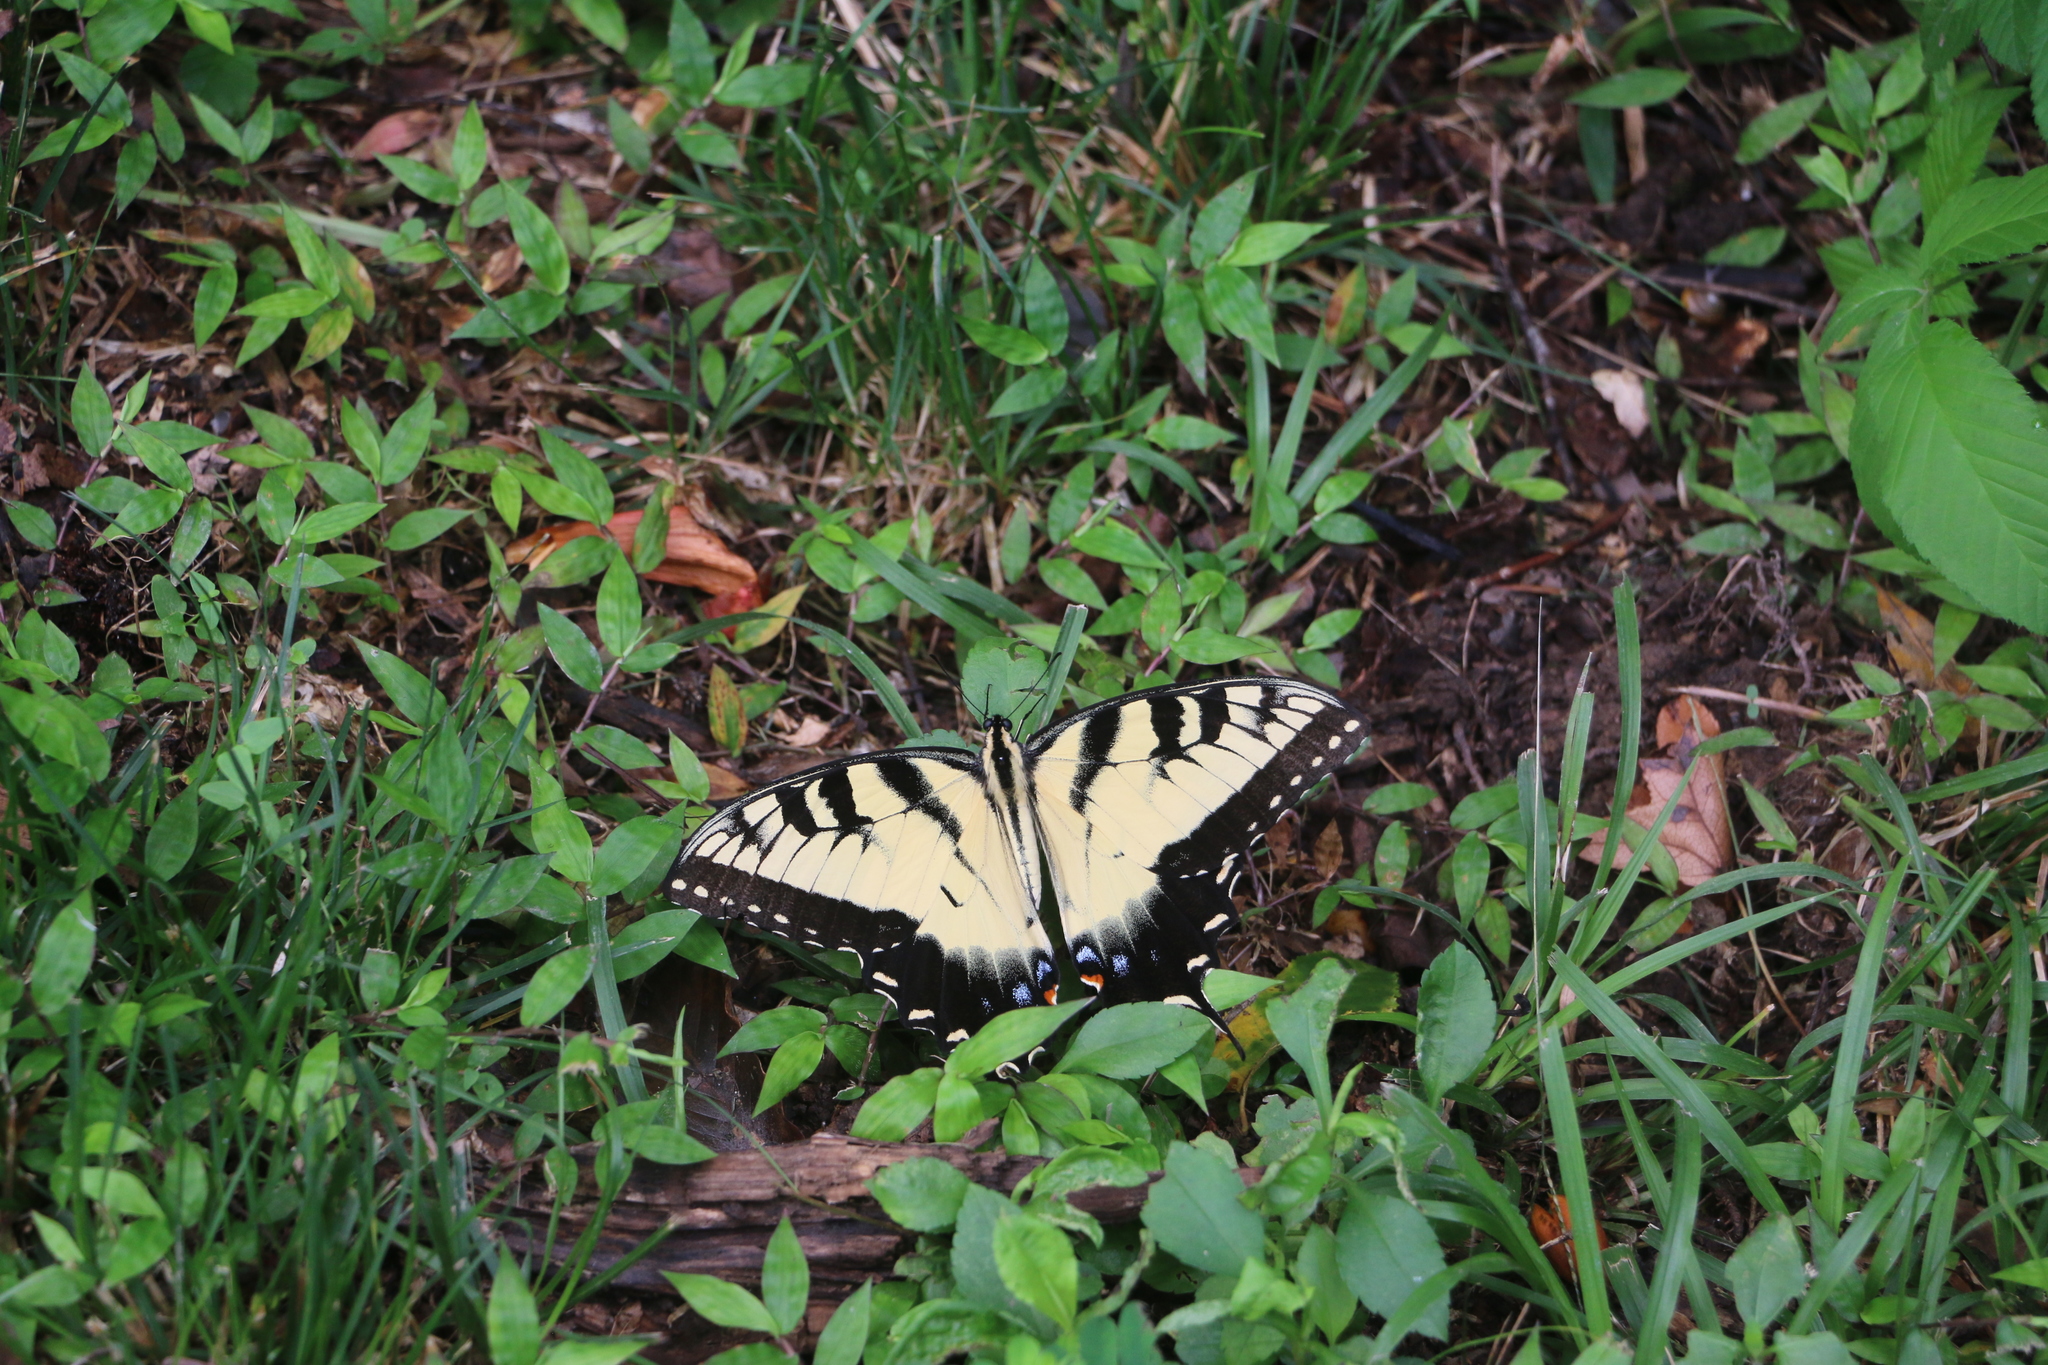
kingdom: Animalia
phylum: Arthropoda
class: Insecta
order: Lepidoptera
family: Papilionidae
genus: Papilio
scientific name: Papilio glaucus
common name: Tiger swallowtail
